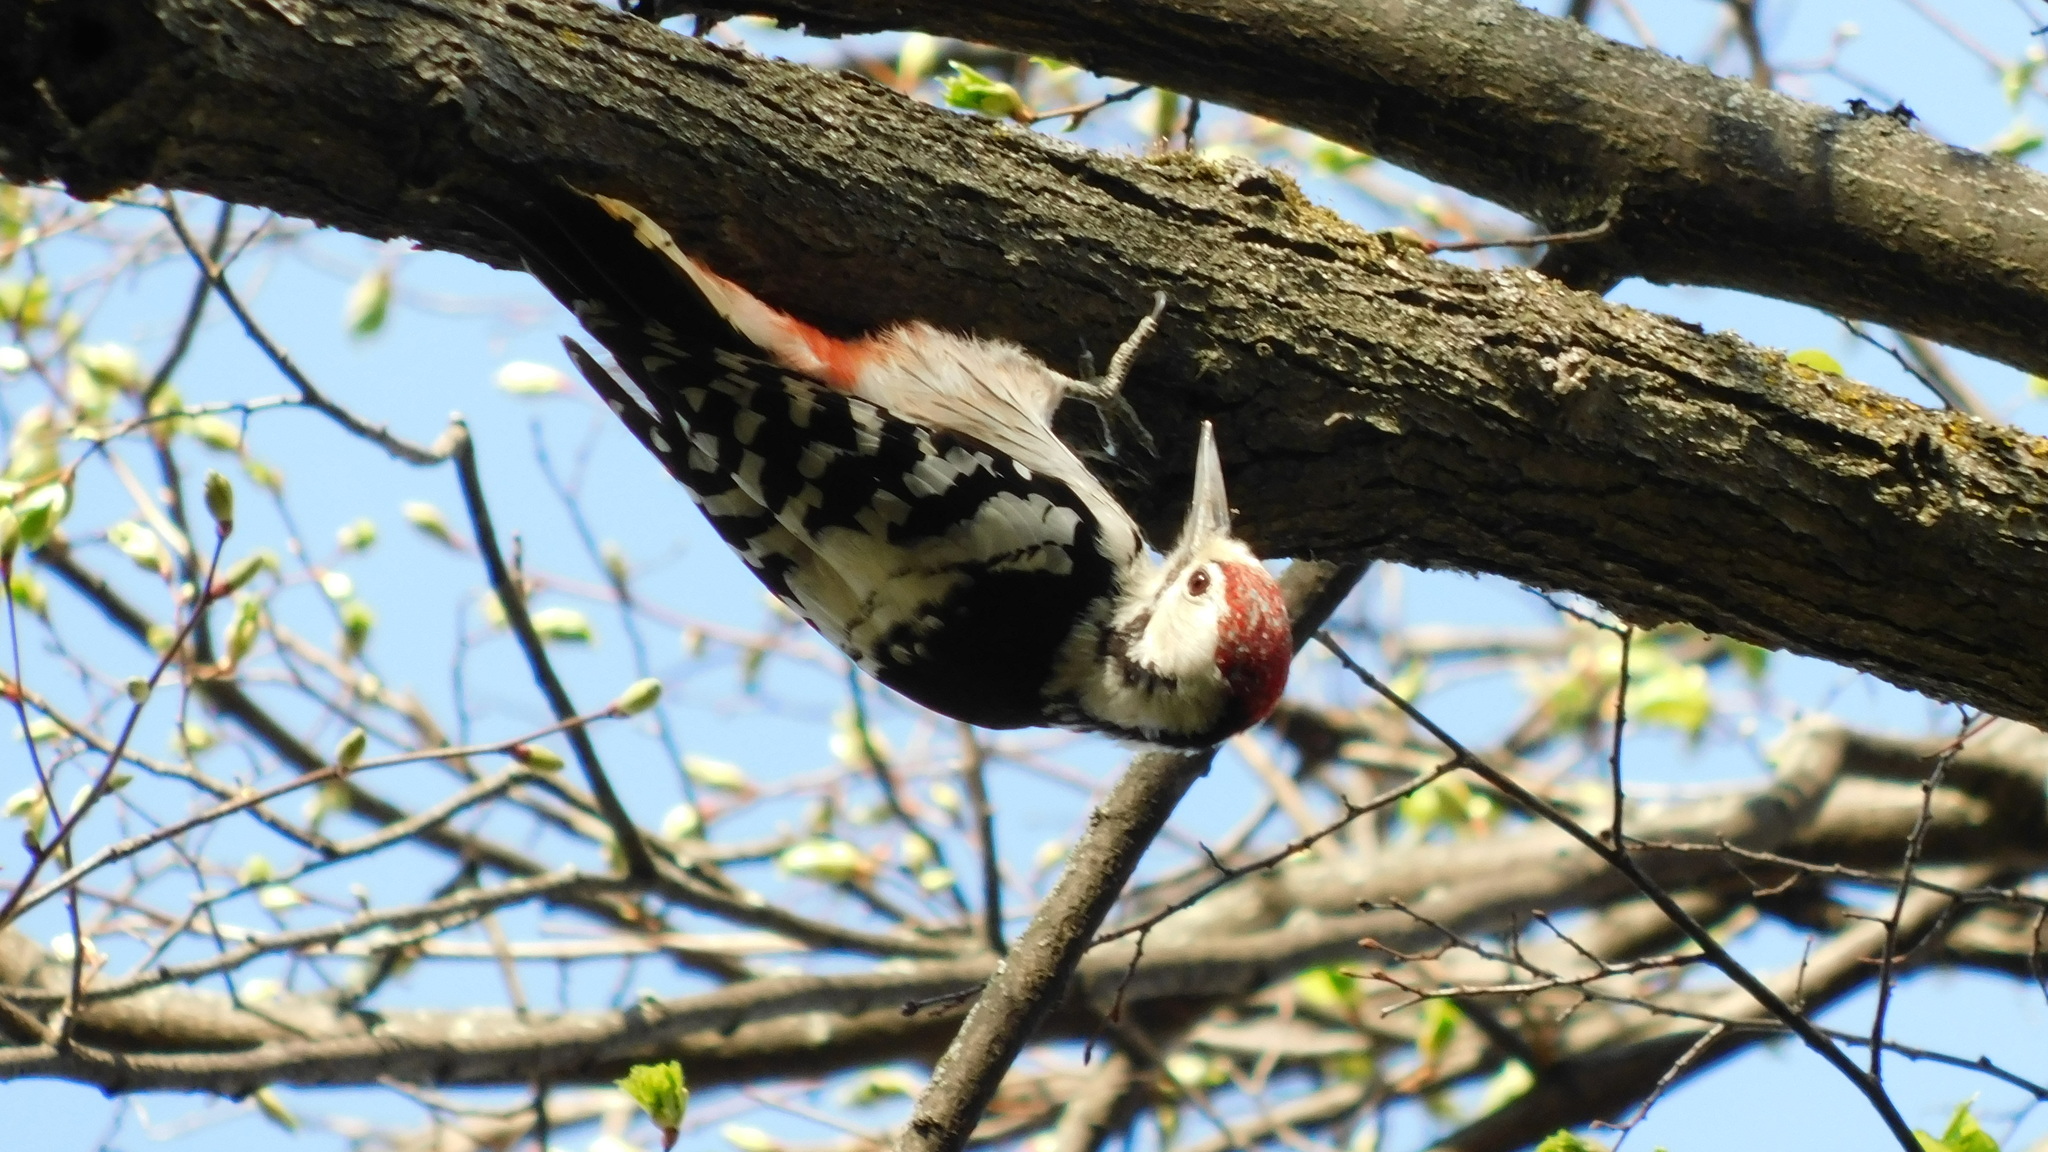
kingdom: Animalia
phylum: Chordata
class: Aves
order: Piciformes
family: Picidae
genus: Dendrocopos
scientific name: Dendrocopos leucotos
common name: White-backed woodpecker
